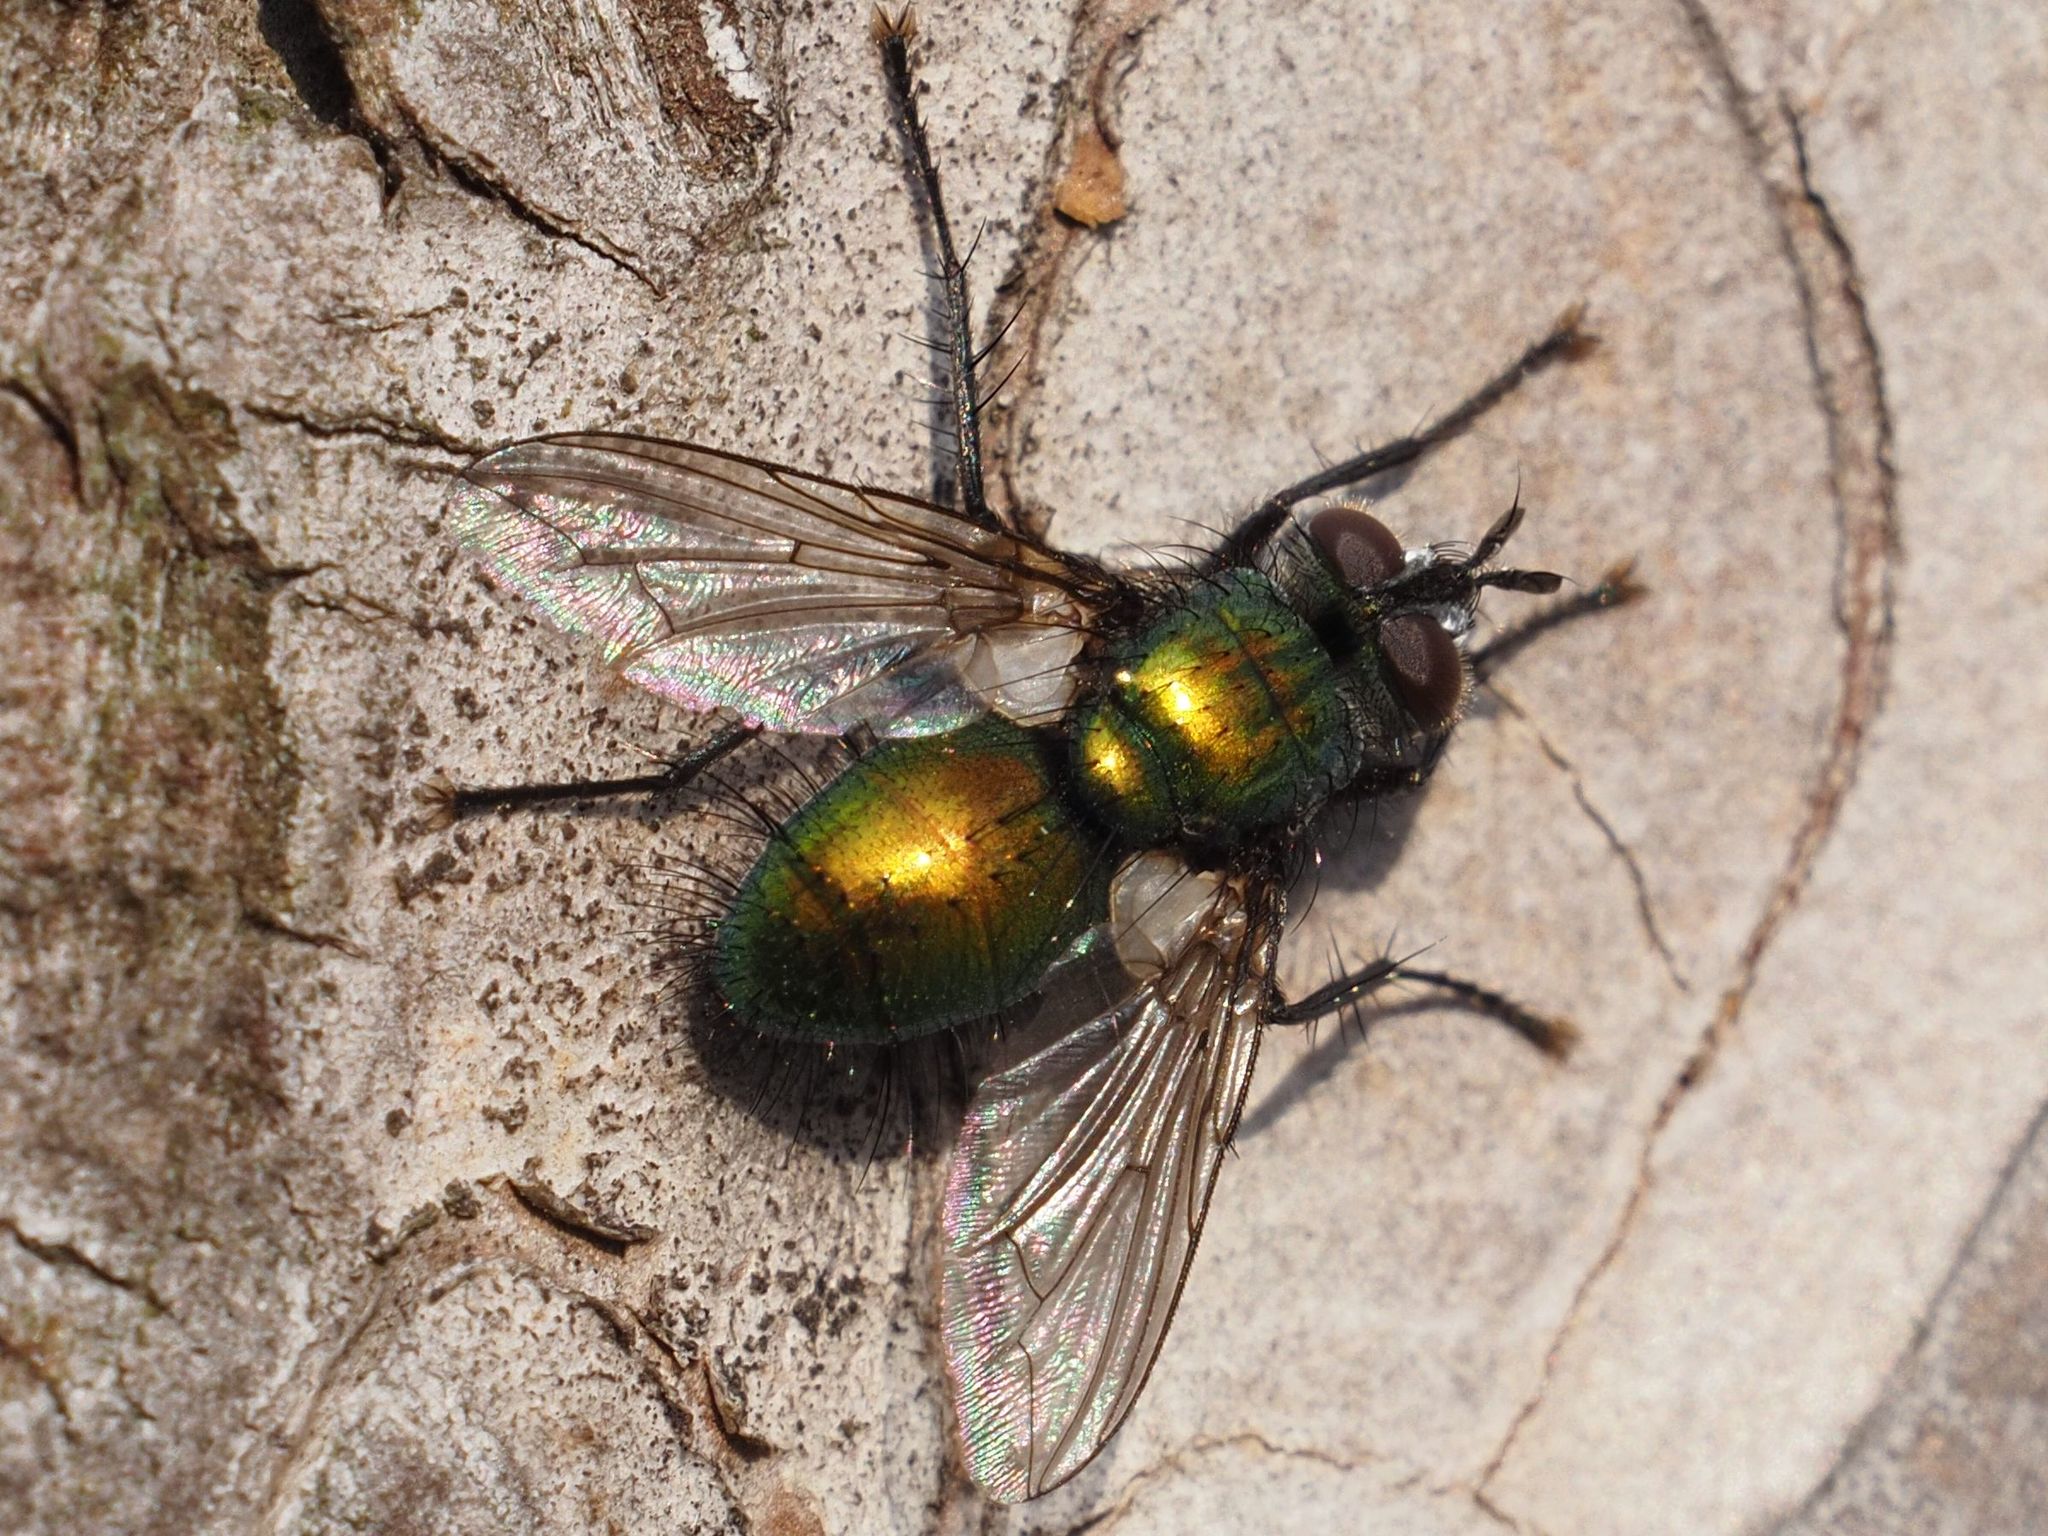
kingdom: Animalia
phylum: Arthropoda
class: Insecta
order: Diptera
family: Tachinidae
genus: Gymnocheta
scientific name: Gymnocheta viridis
